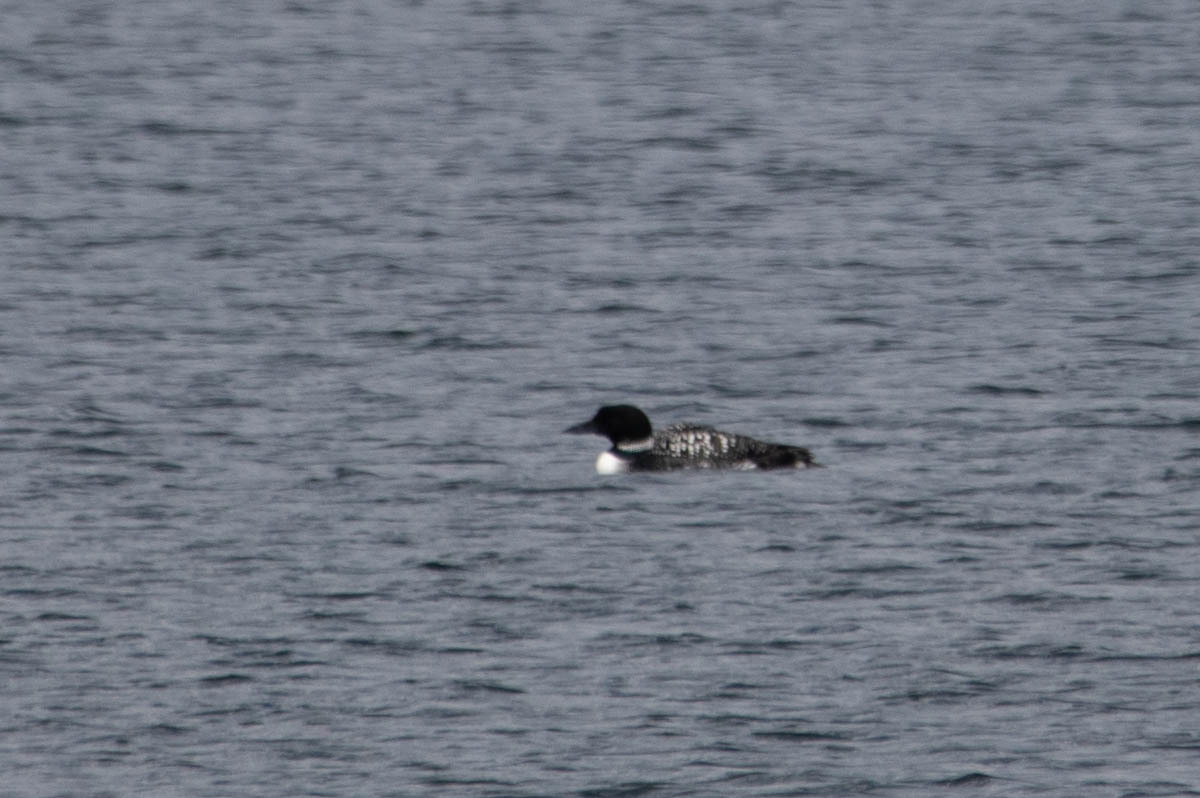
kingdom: Animalia
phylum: Chordata
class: Aves
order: Gaviiformes
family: Gaviidae
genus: Gavia
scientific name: Gavia immer
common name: Common loon
